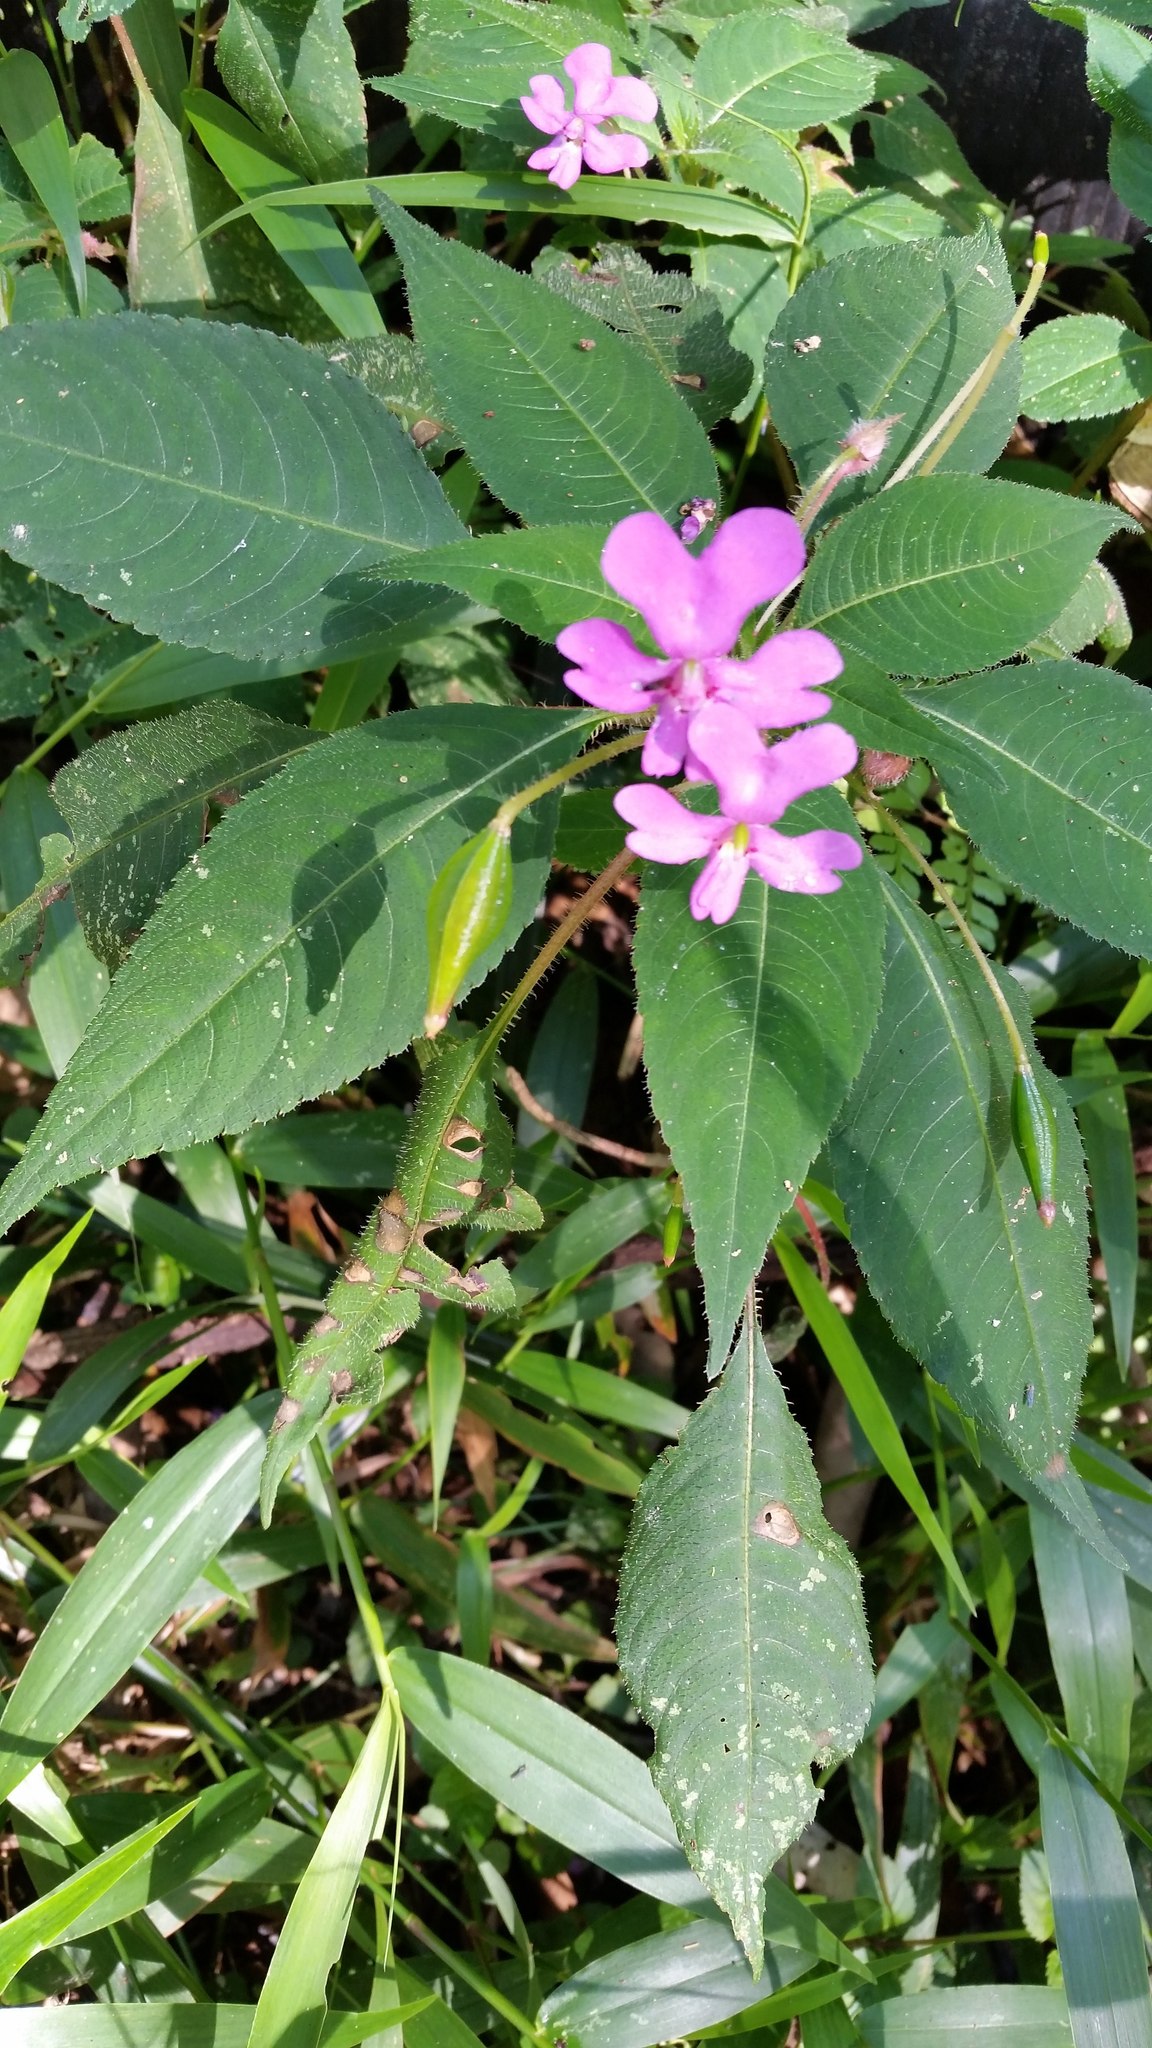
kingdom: Plantae
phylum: Tracheophyta
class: Magnoliopsida
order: Ericales
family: Balsaminaceae
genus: Impatiens
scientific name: Impatiens eberhardtii
